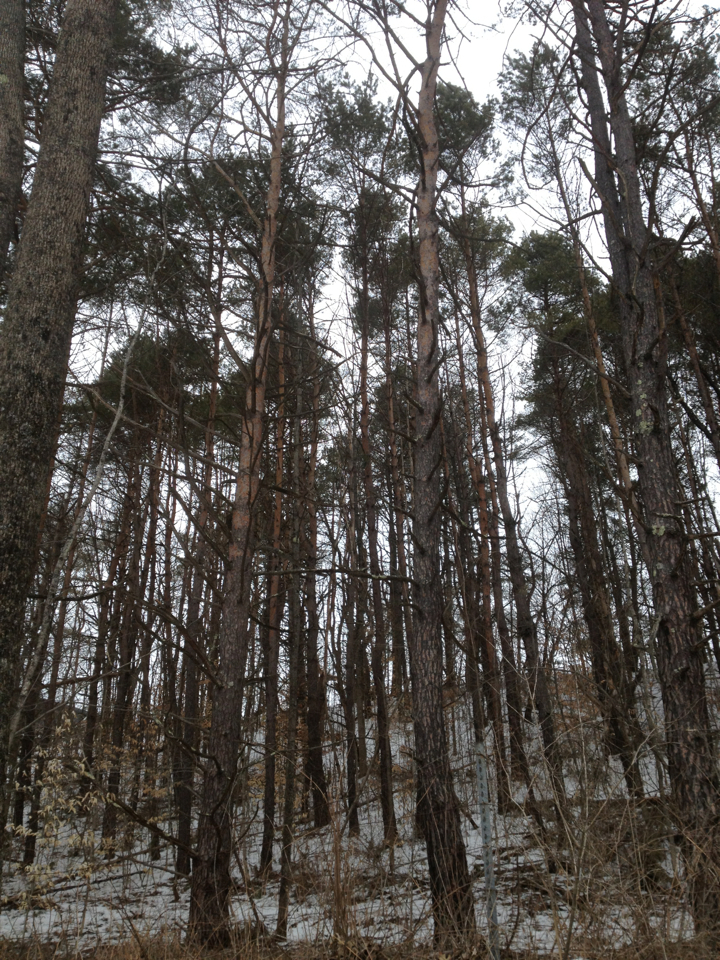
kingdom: Plantae
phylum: Tracheophyta
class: Pinopsida
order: Pinales
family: Pinaceae
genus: Pinus
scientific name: Pinus resinosa
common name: Norway pine
